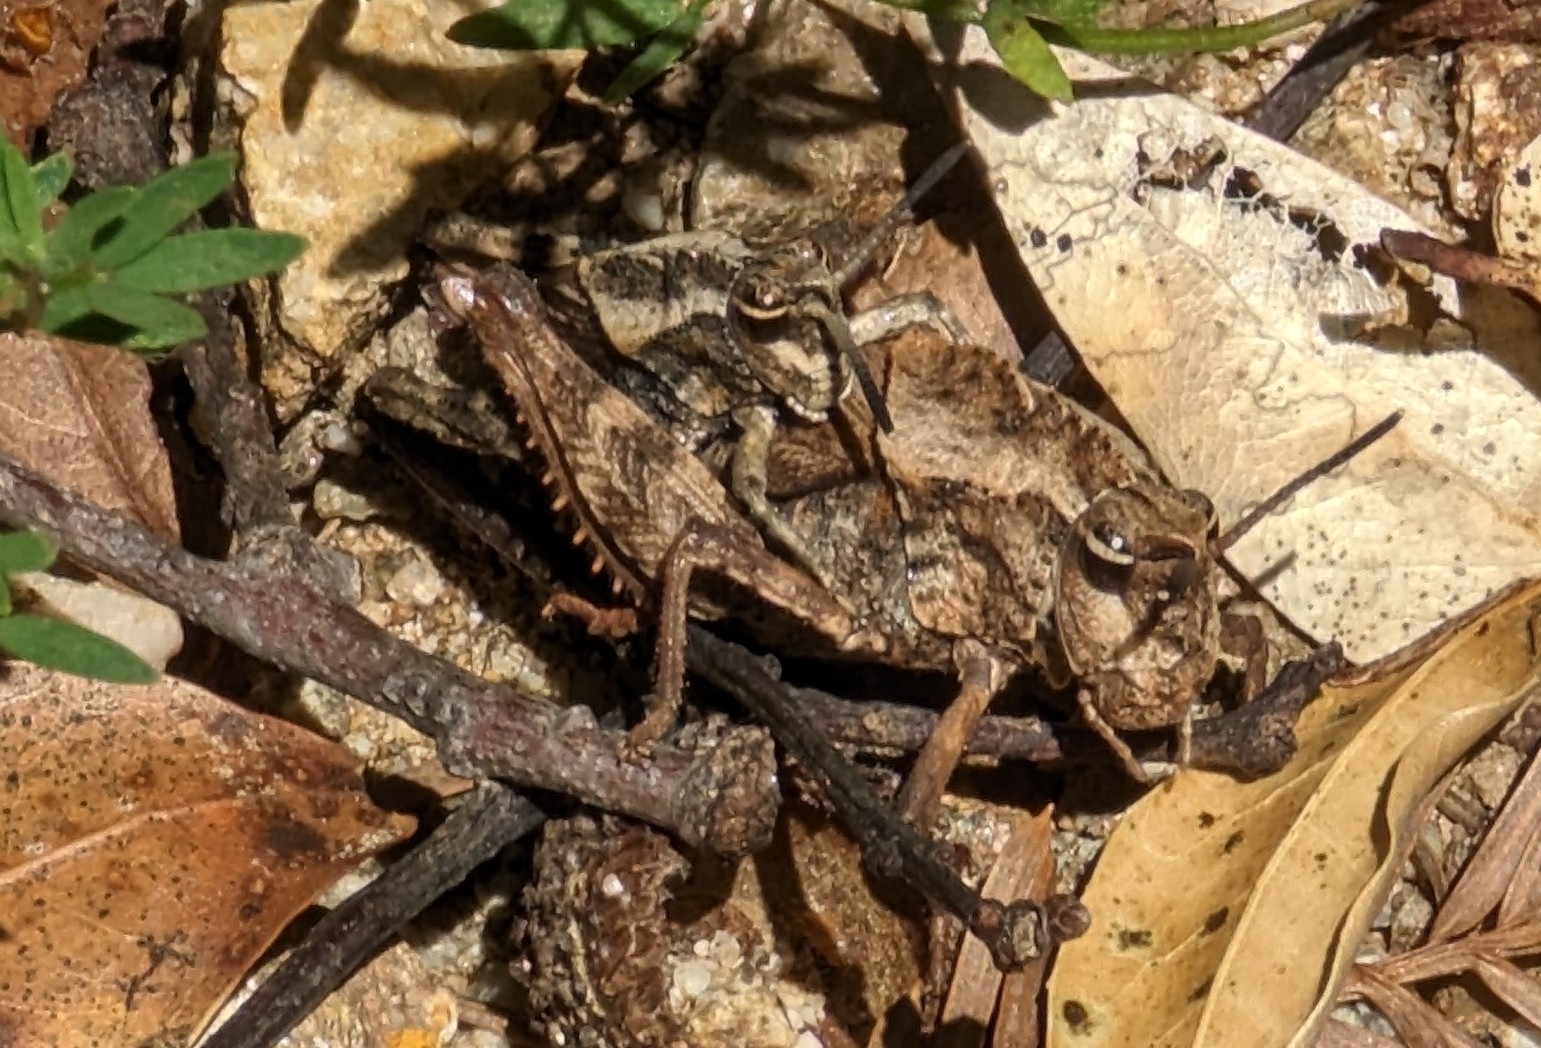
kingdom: Animalia
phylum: Arthropoda
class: Insecta
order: Orthoptera
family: Romaleidae
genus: Dracotettix
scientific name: Dracotettix monstrosus
